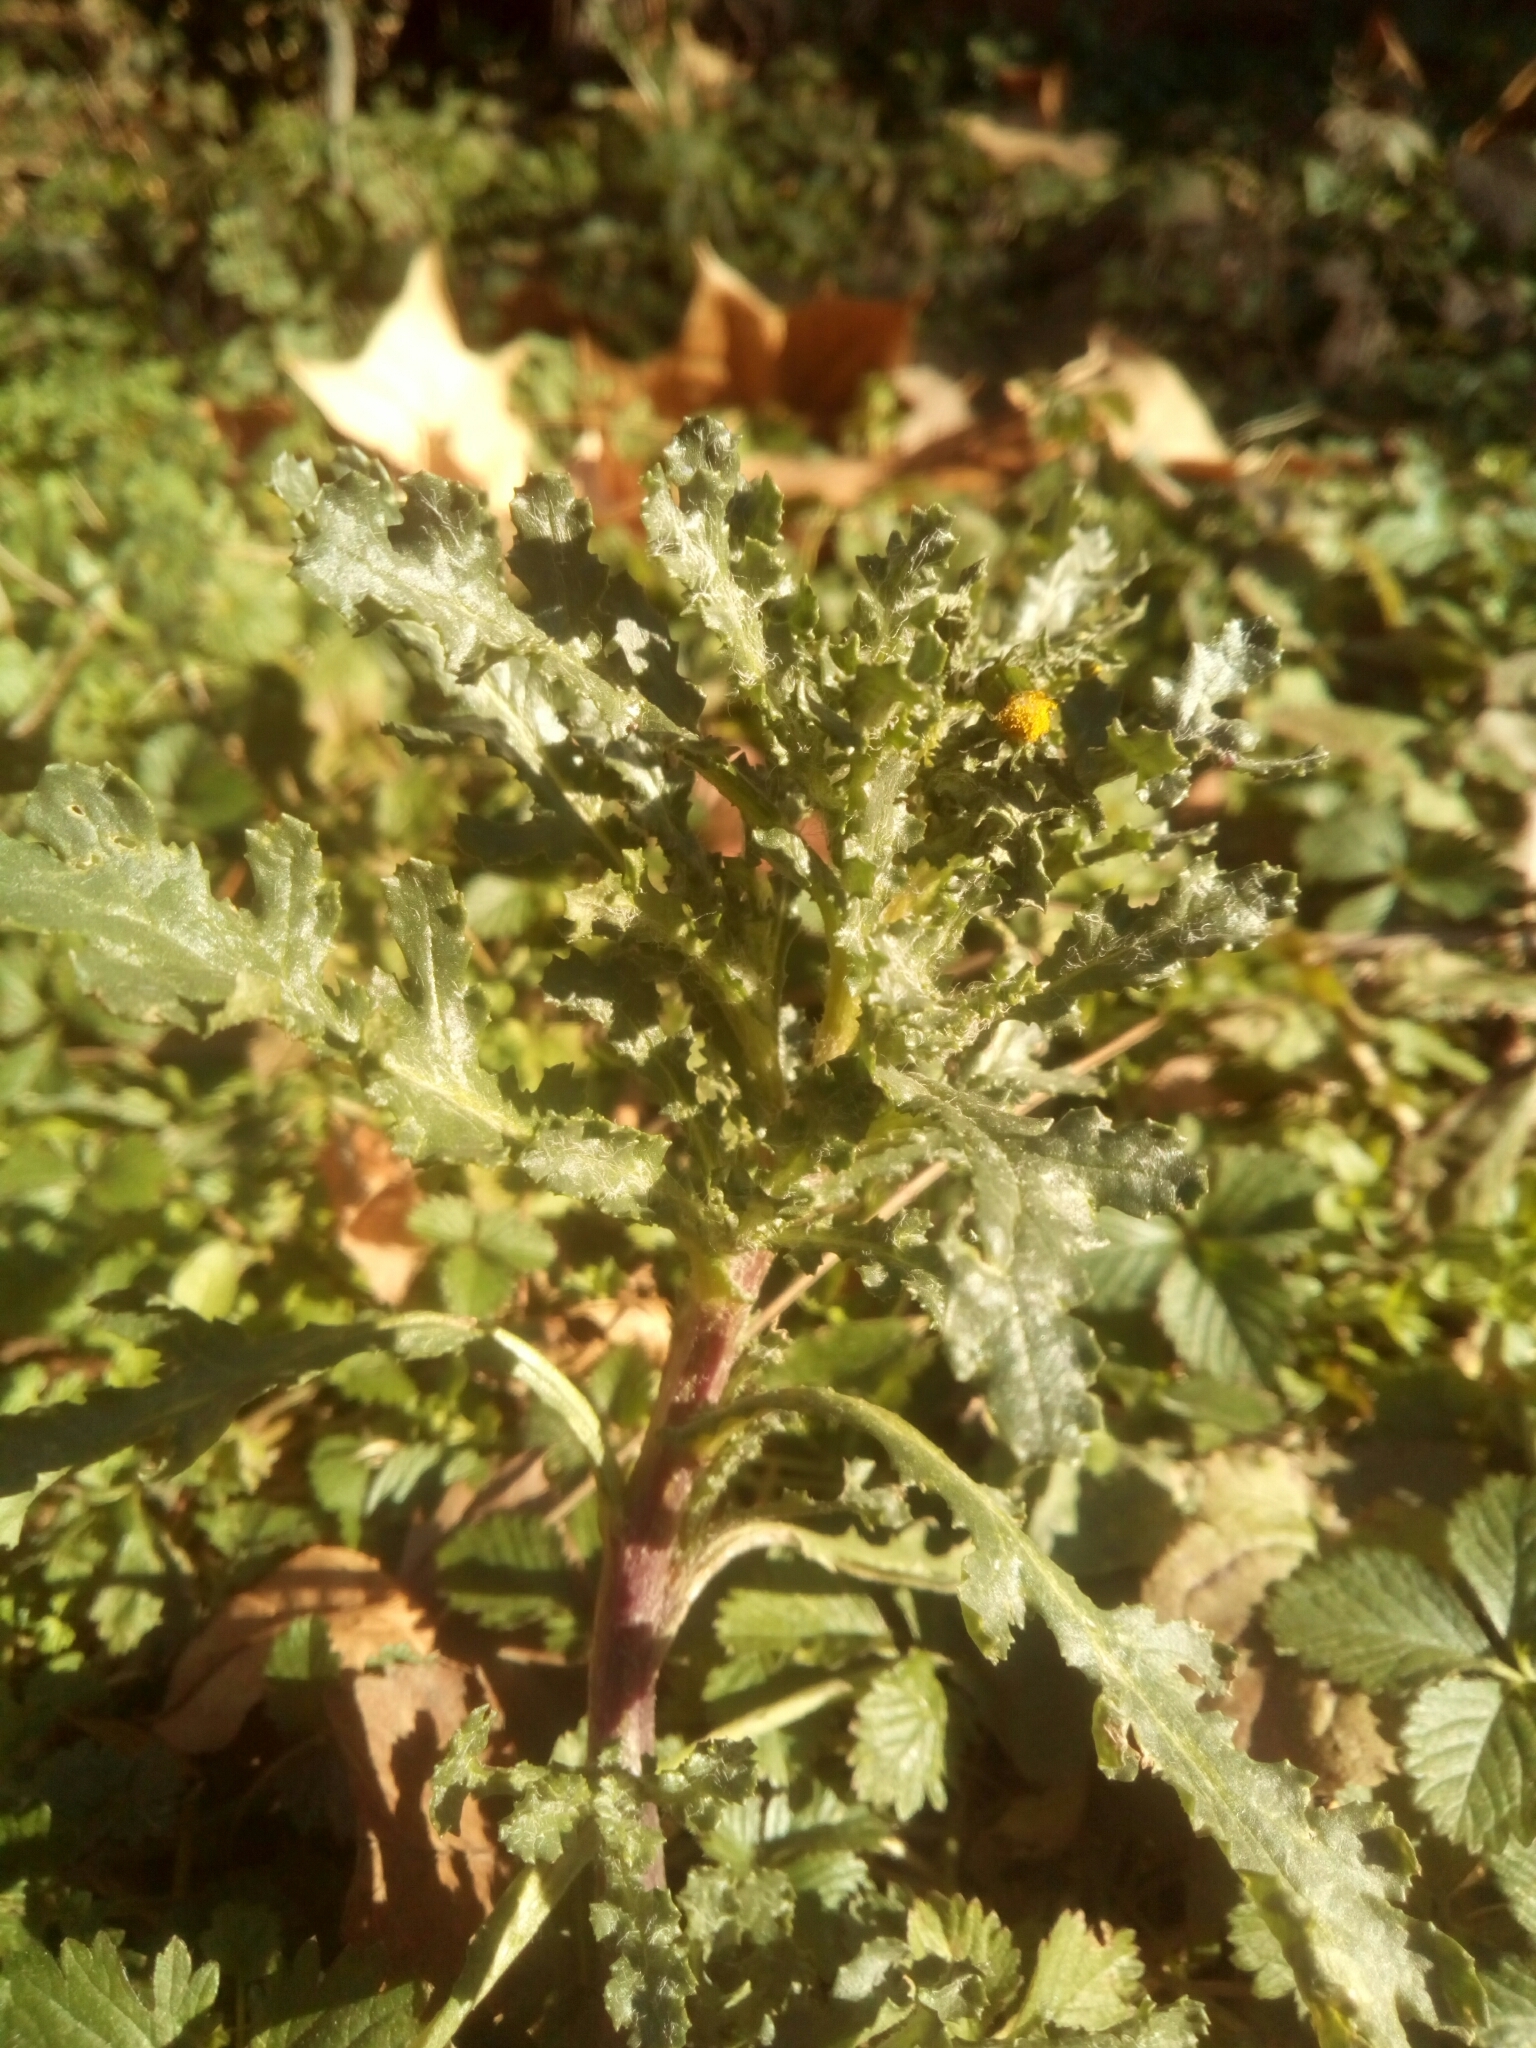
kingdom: Plantae
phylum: Tracheophyta
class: Magnoliopsida
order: Asterales
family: Asteraceae
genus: Senecio
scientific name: Senecio vulgaris
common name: Old-man-in-the-spring
